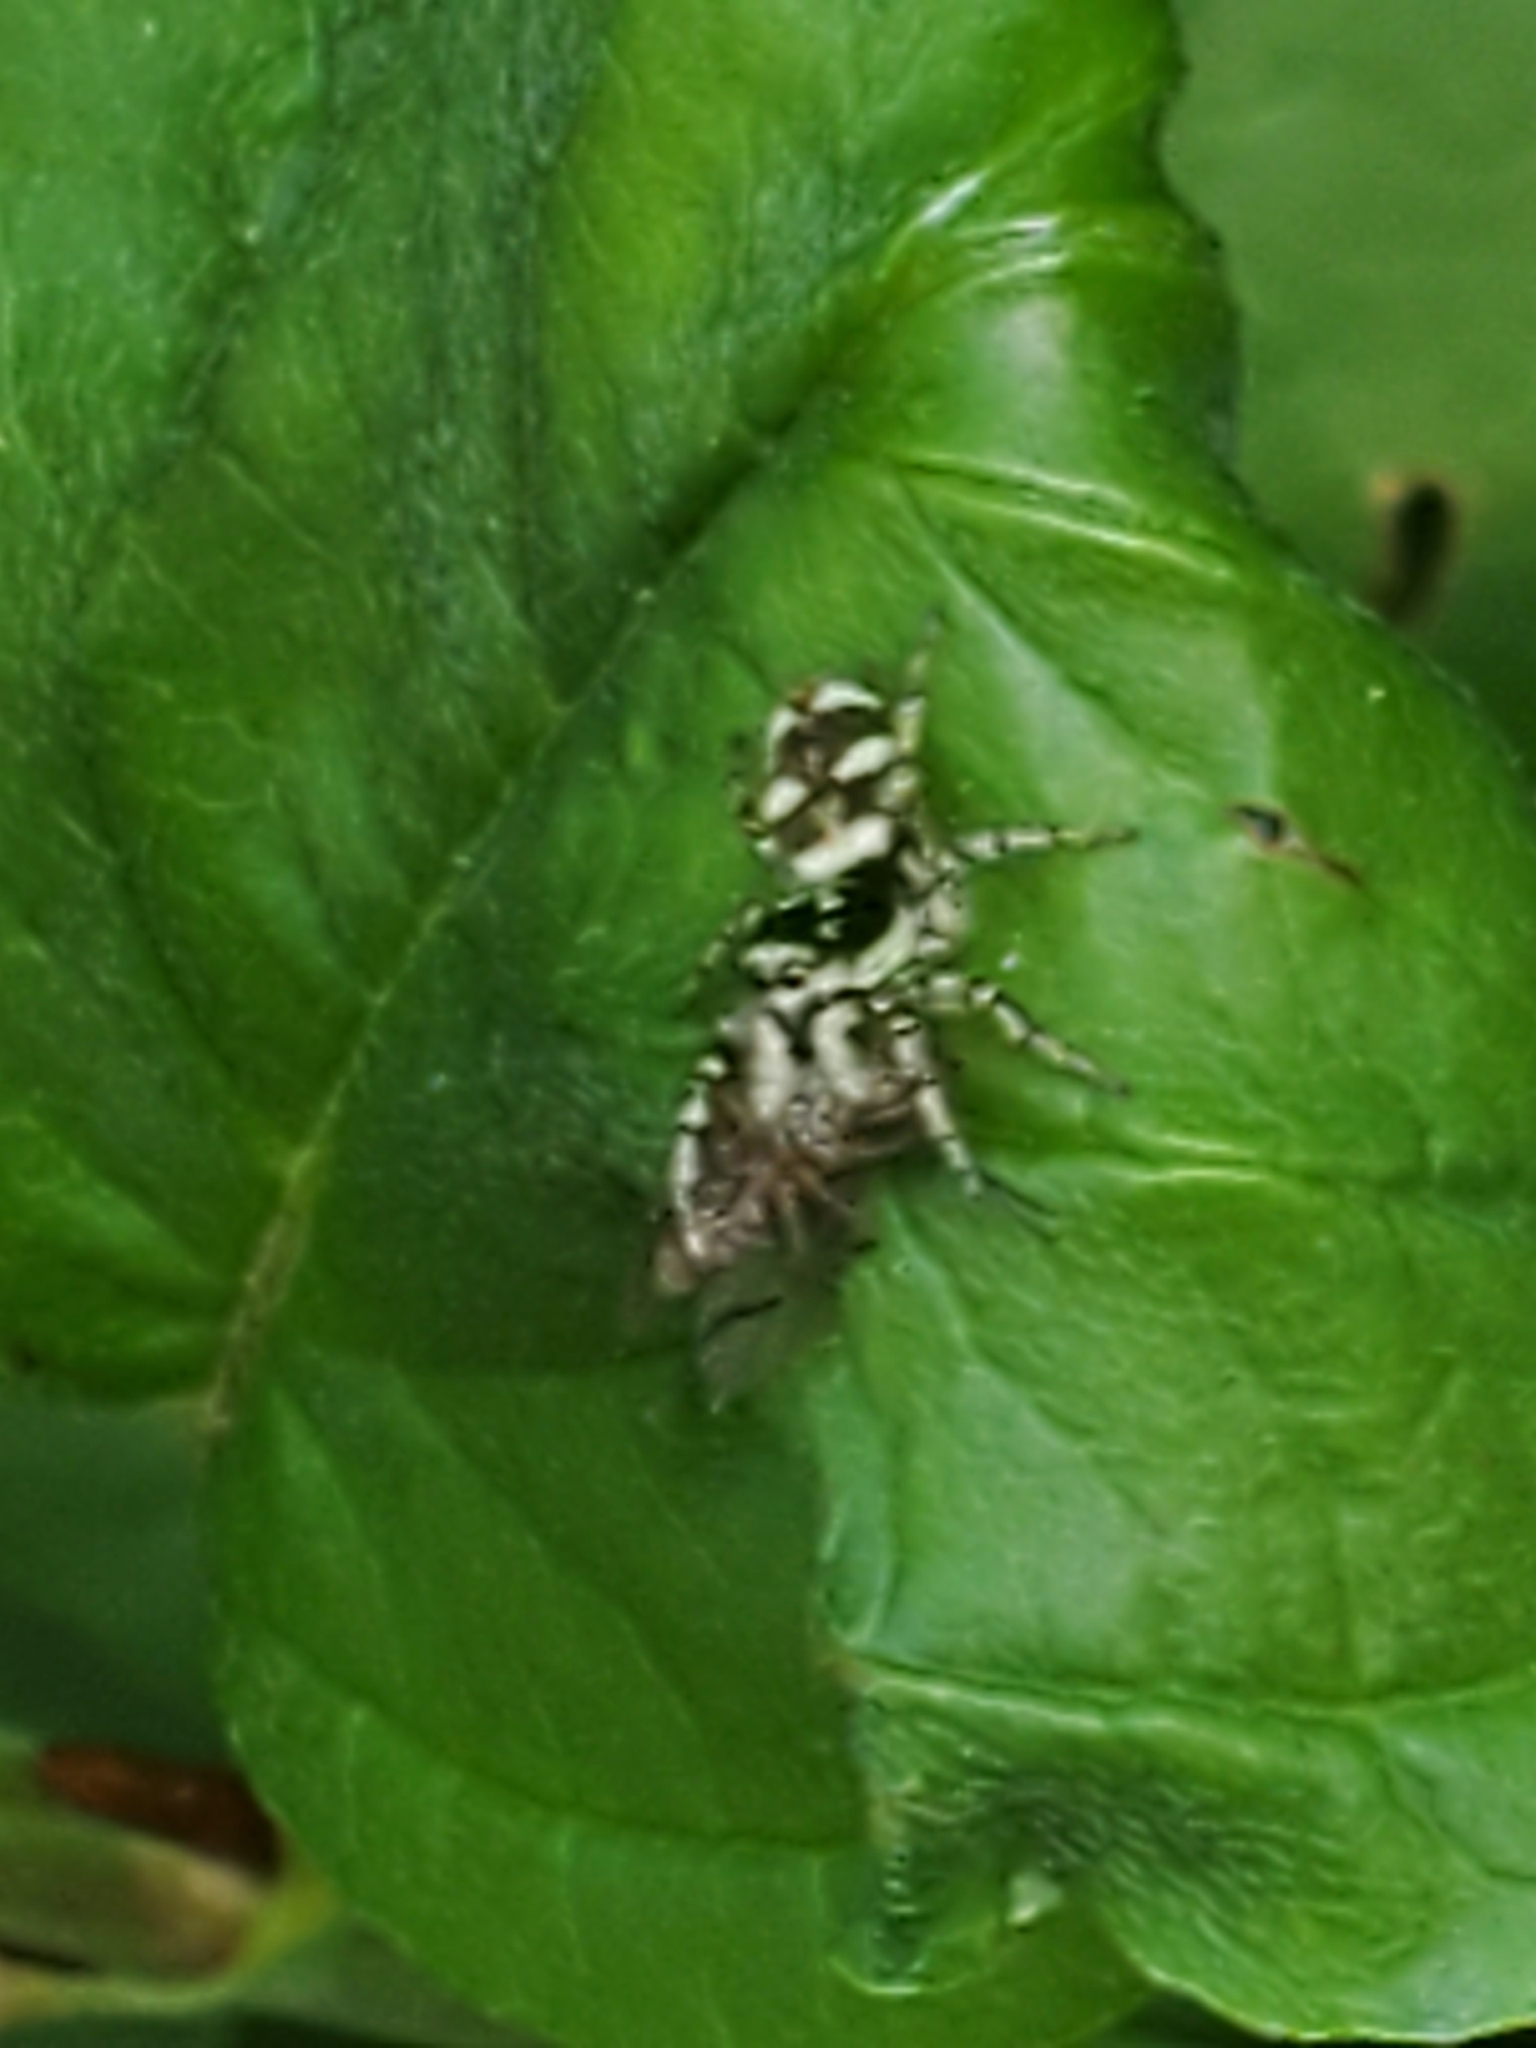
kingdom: Animalia
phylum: Arthropoda
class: Arachnida
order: Araneae
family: Salticidae
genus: Salticus
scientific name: Salticus scenicus
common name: Zebra jumper
